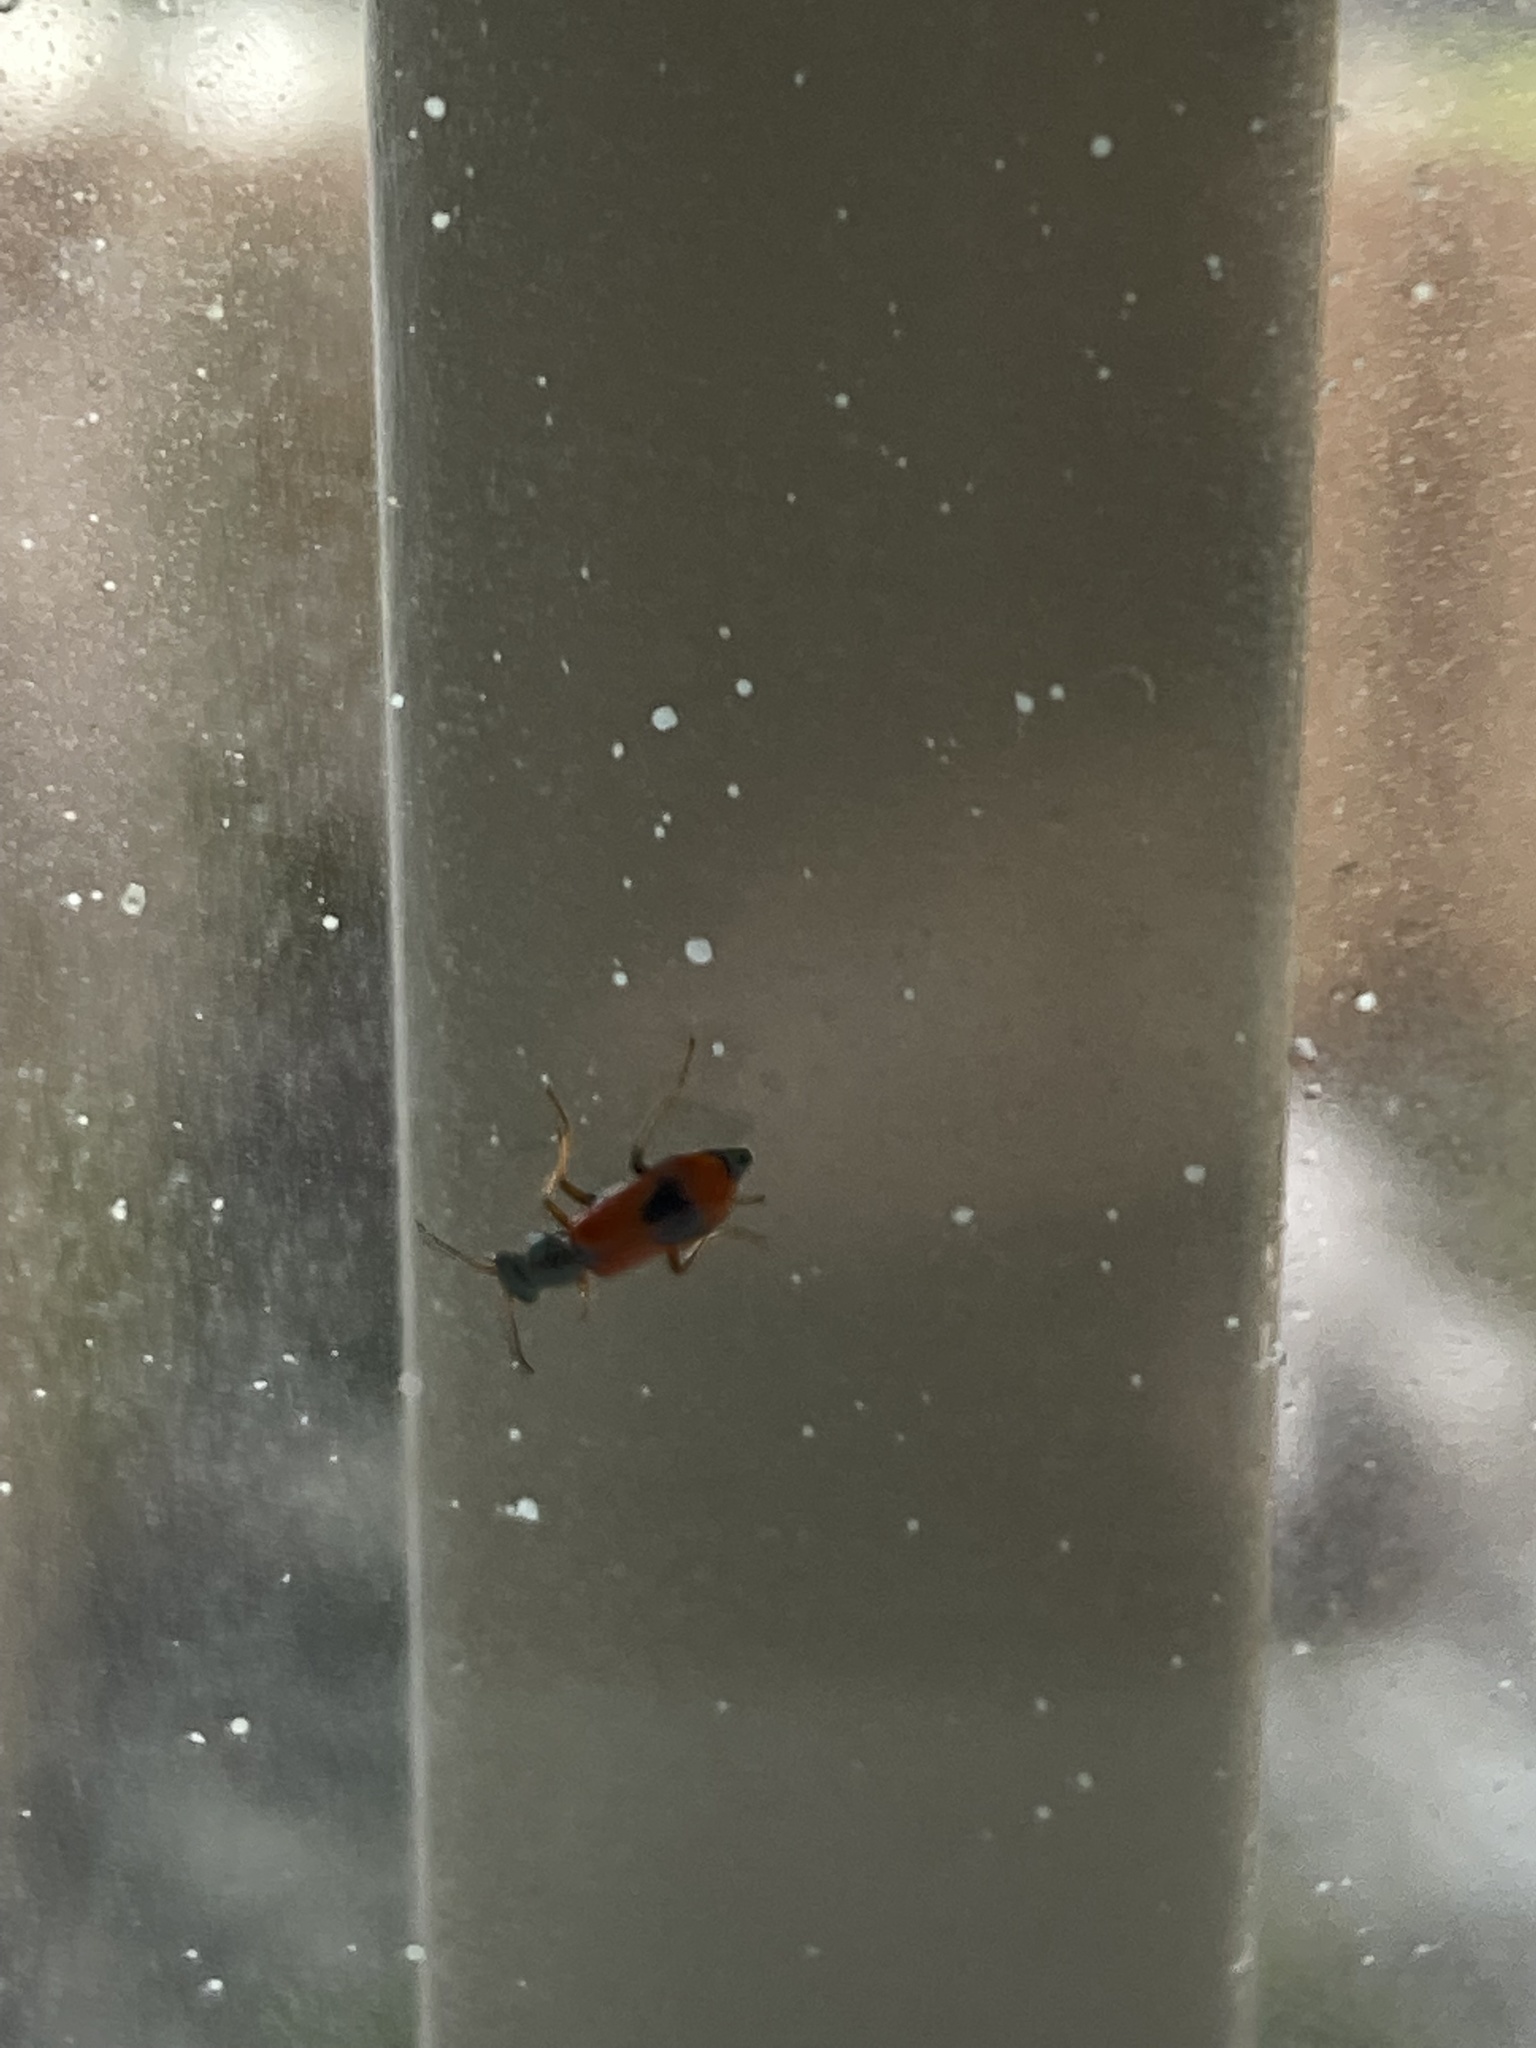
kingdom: Animalia
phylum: Arthropoda
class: Insecta
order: Coleoptera
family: Melyridae
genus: Anthocomus
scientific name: Anthocomus equestris
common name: Black-banded soft-winged flower beetle
